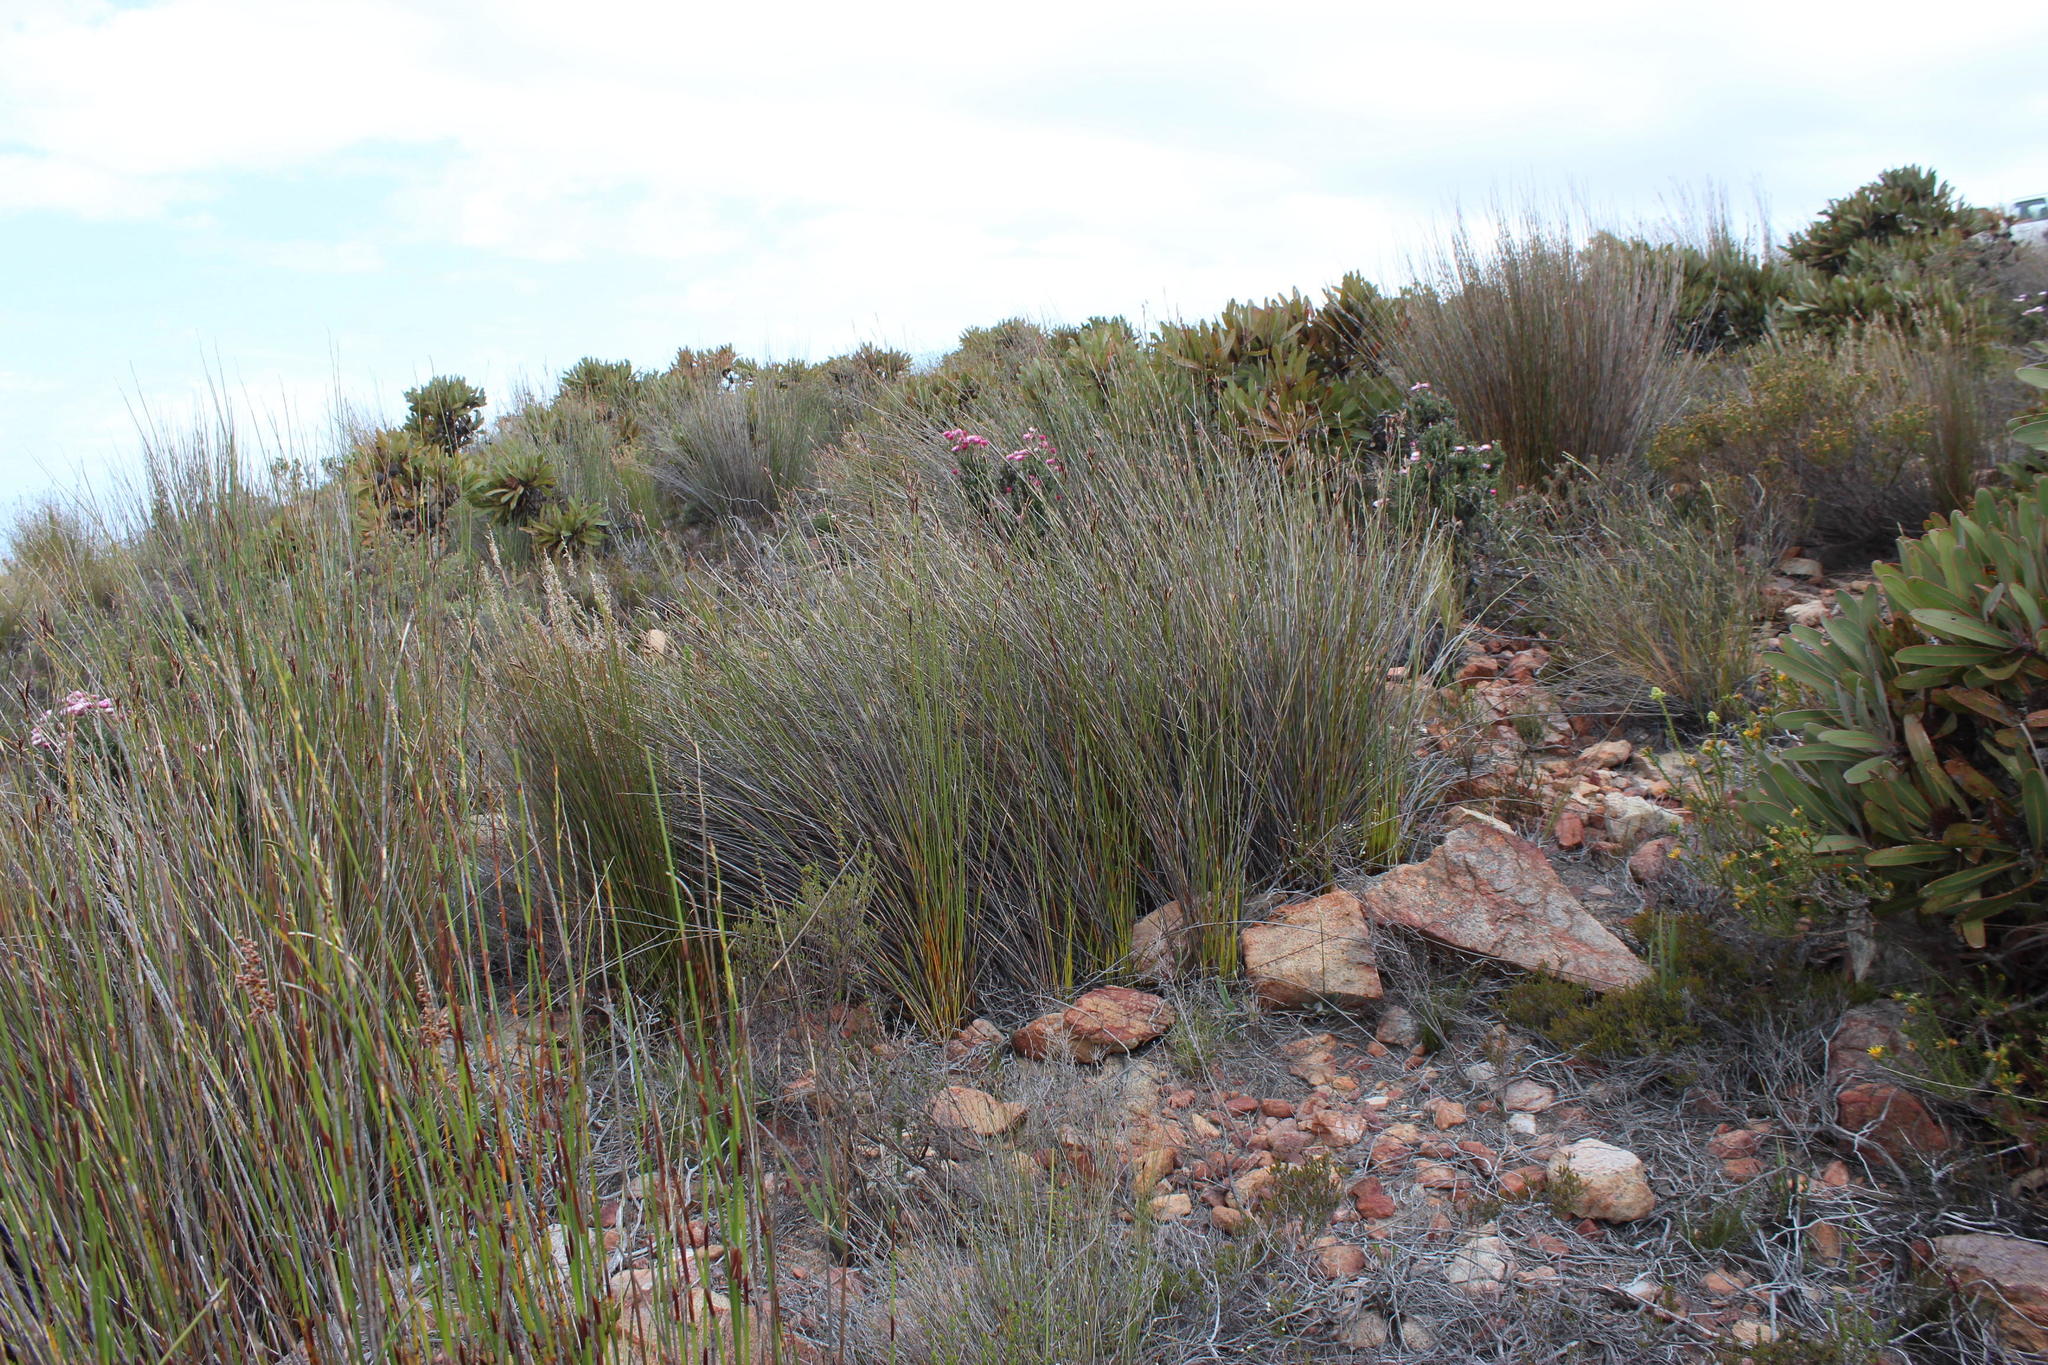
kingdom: Plantae
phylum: Tracheophyta
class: Liliopsida
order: Poales
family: Restionaceae
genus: Cannomois
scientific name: Cannomois congesta
